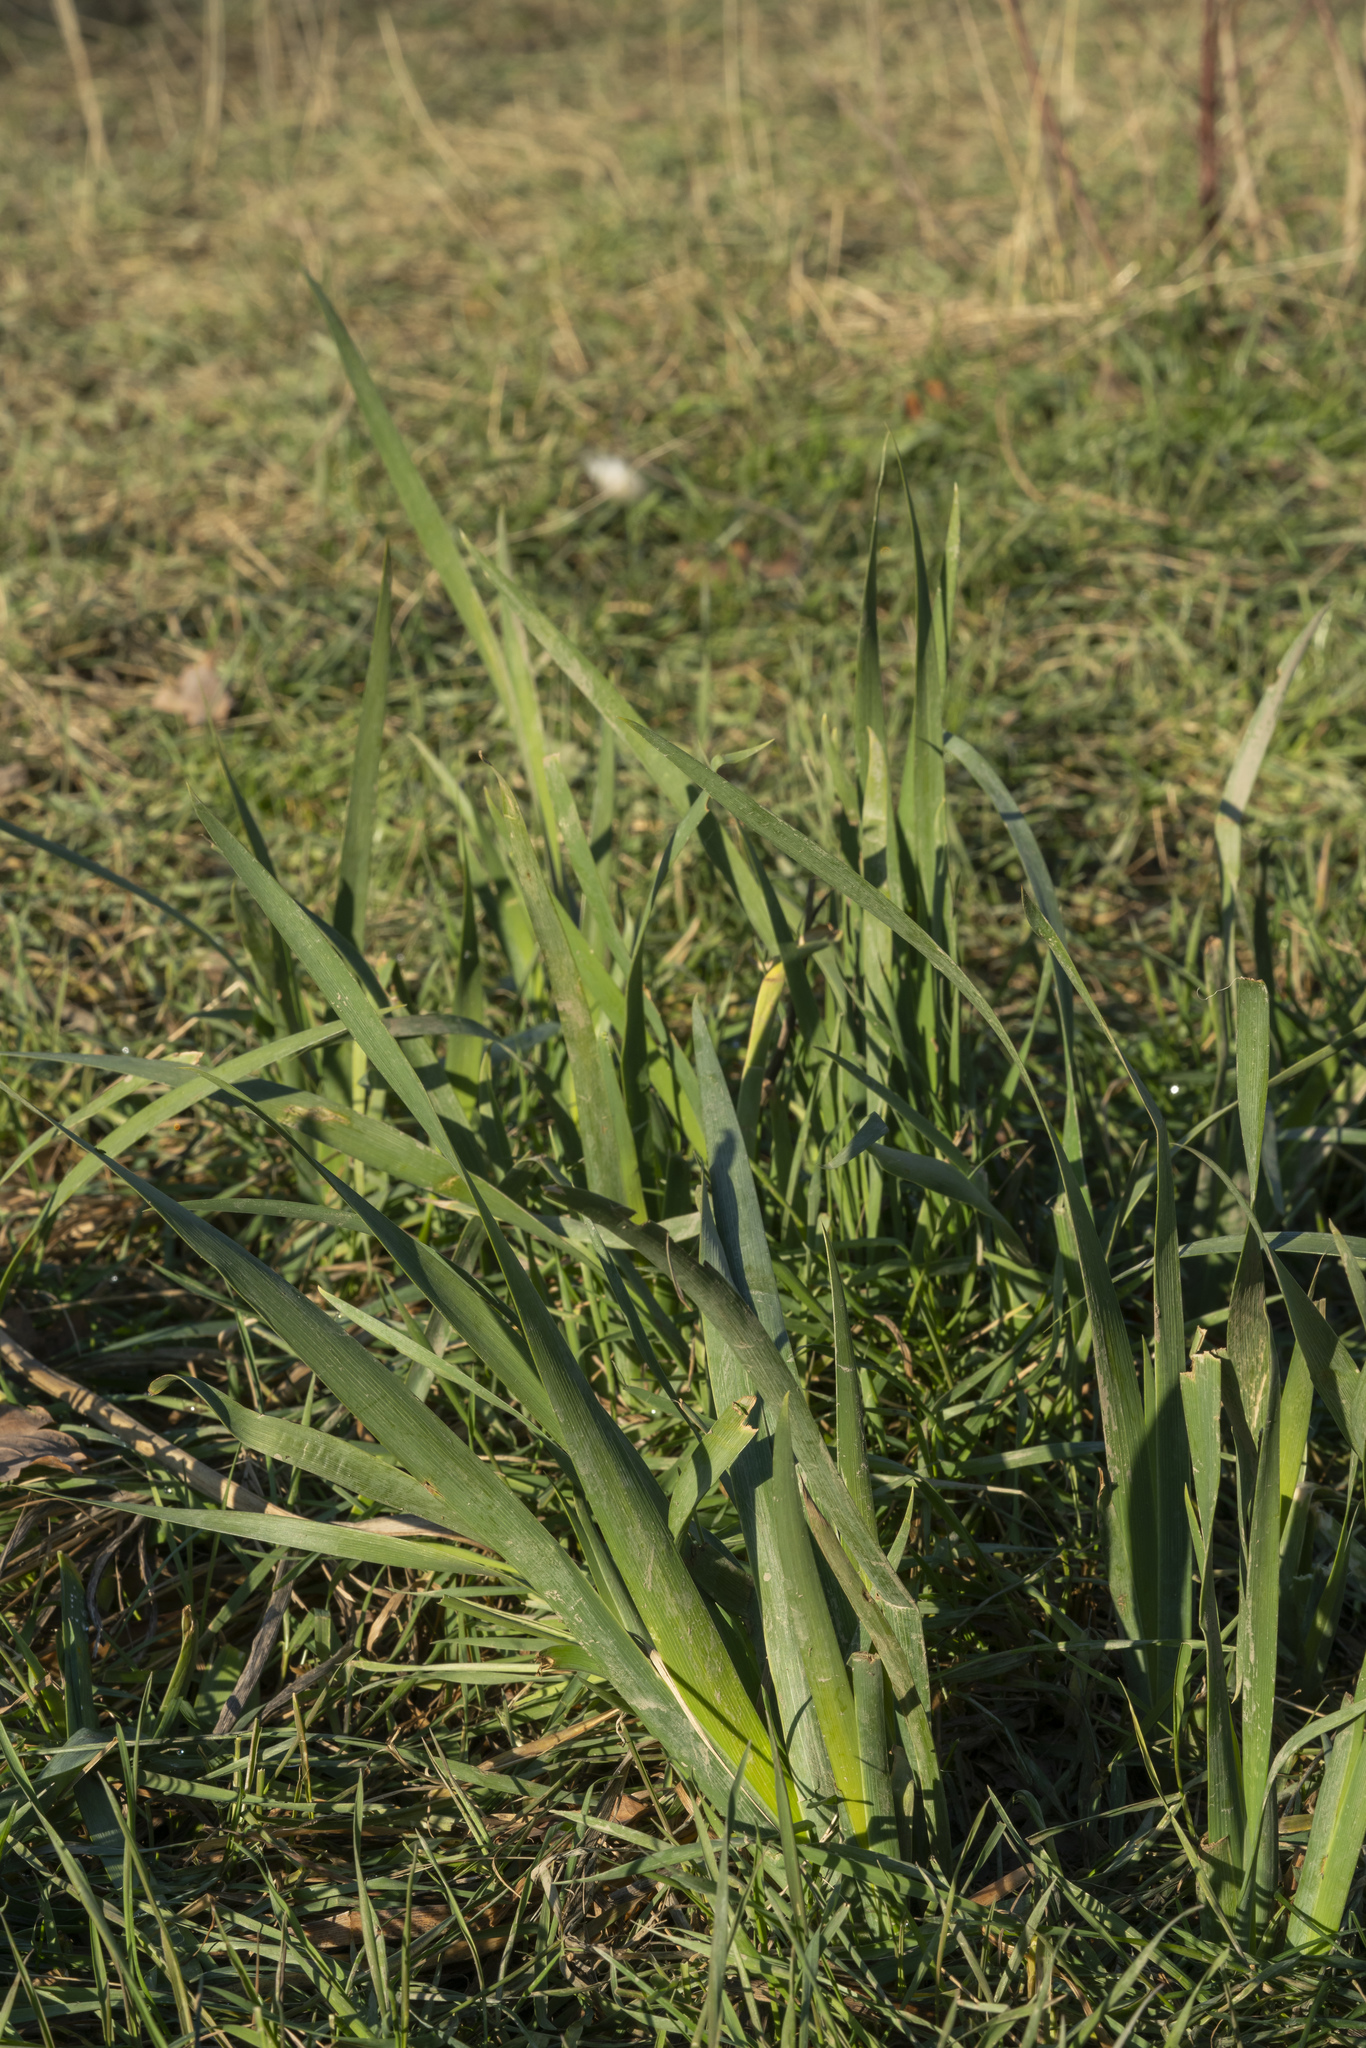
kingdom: Plantae
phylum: Tracheophyta
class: Liliopsida
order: Asparagales
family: Iridaceae
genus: Iris
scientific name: Iris pseudacorus
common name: Yellow flag
